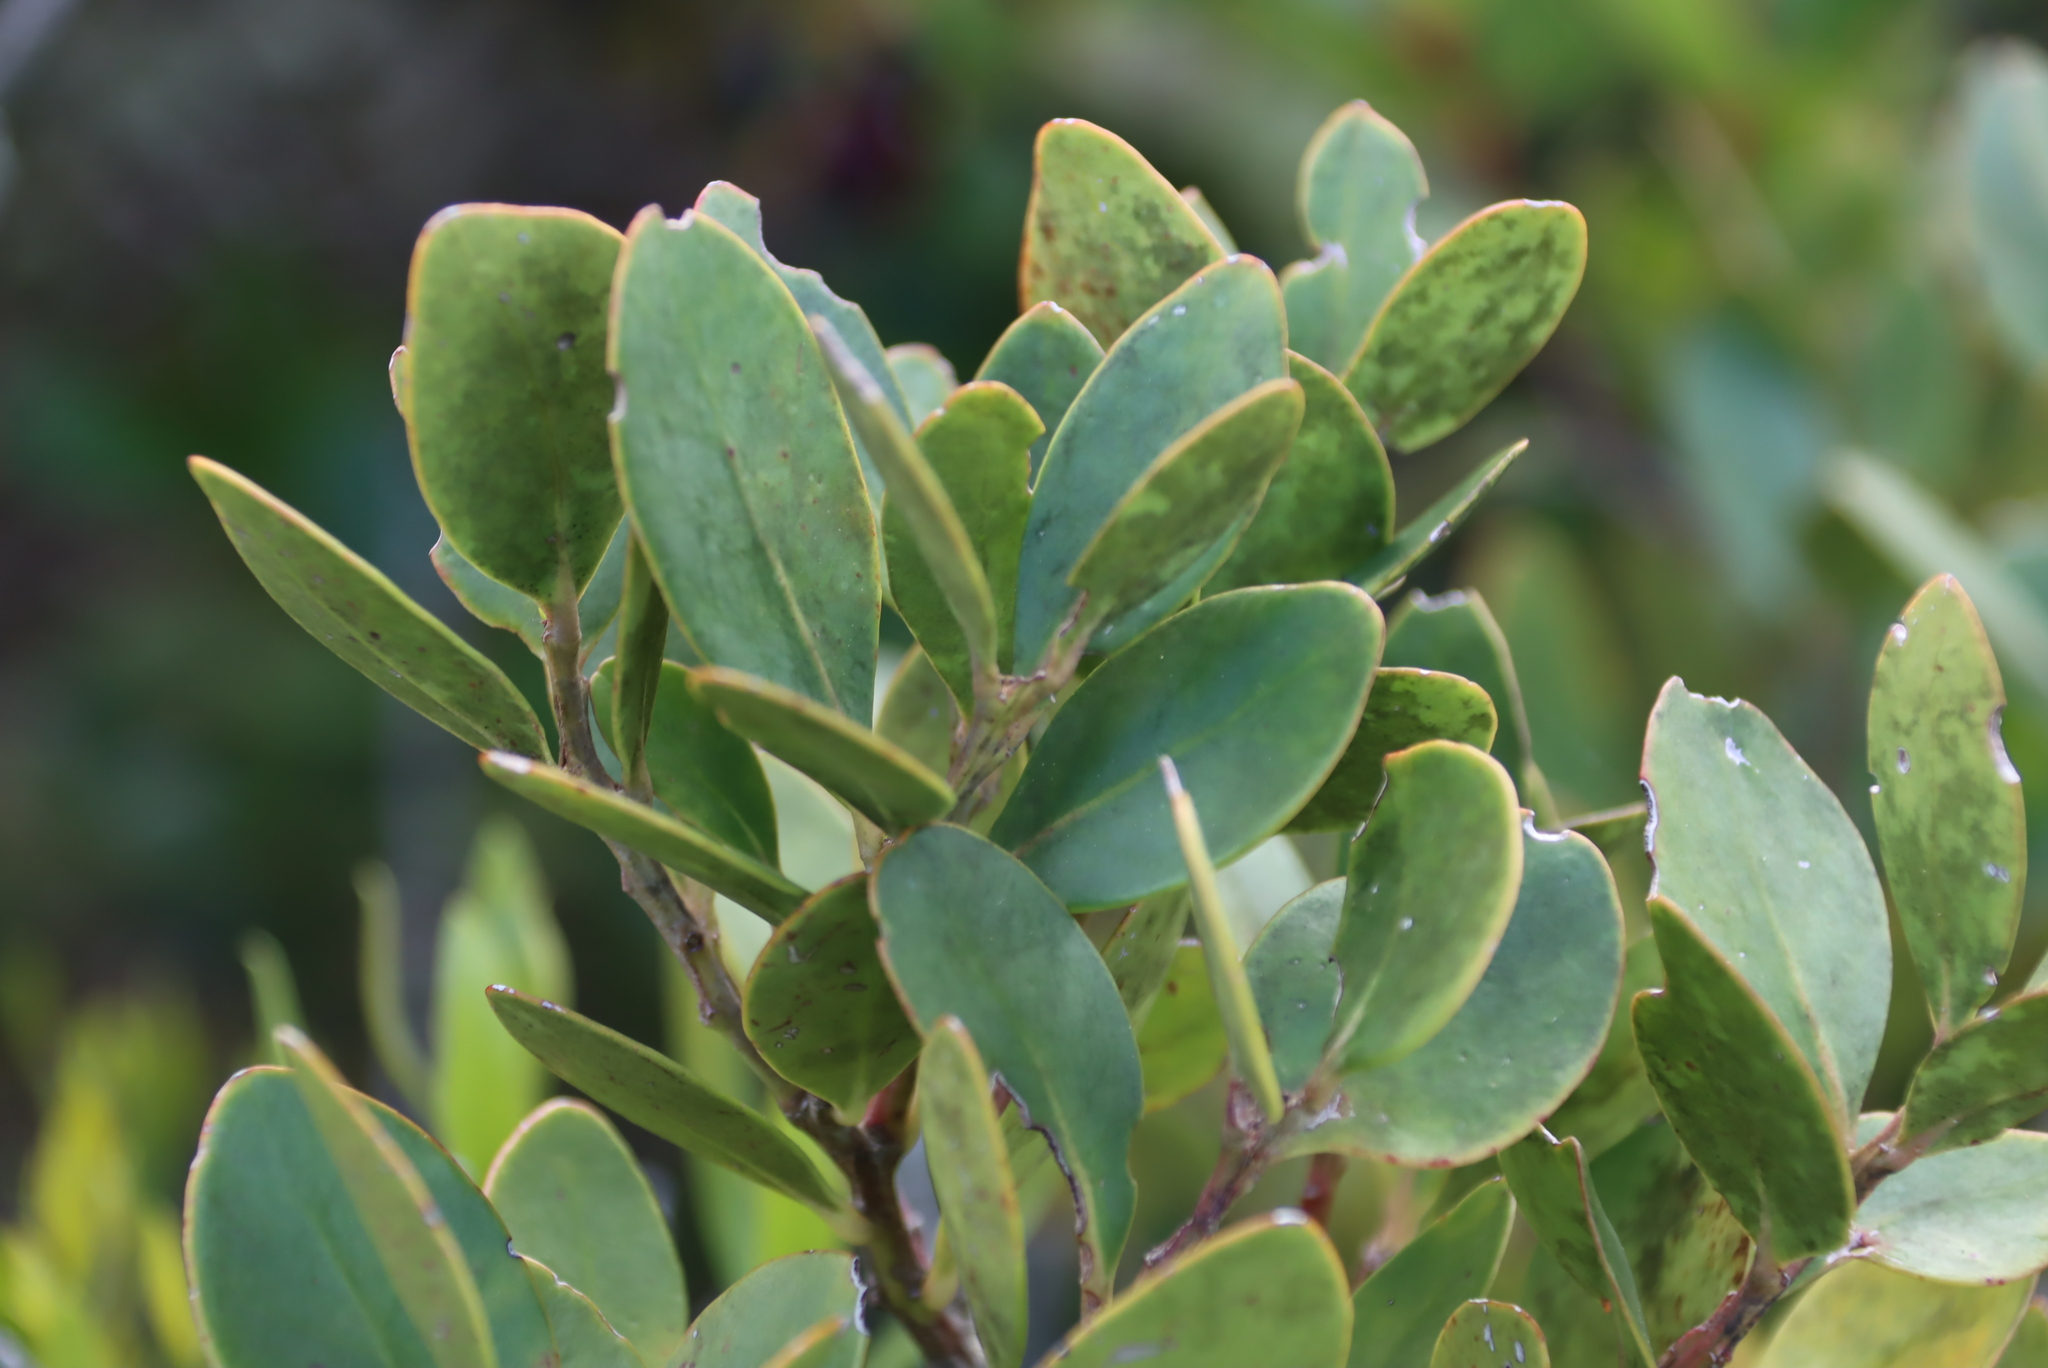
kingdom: Plantae
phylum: Tracheophyta
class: Magnoliopsida
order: Celastrales
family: Celastraceae
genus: Pterocelastrus
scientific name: Pterocelastrus tricuspidatus
